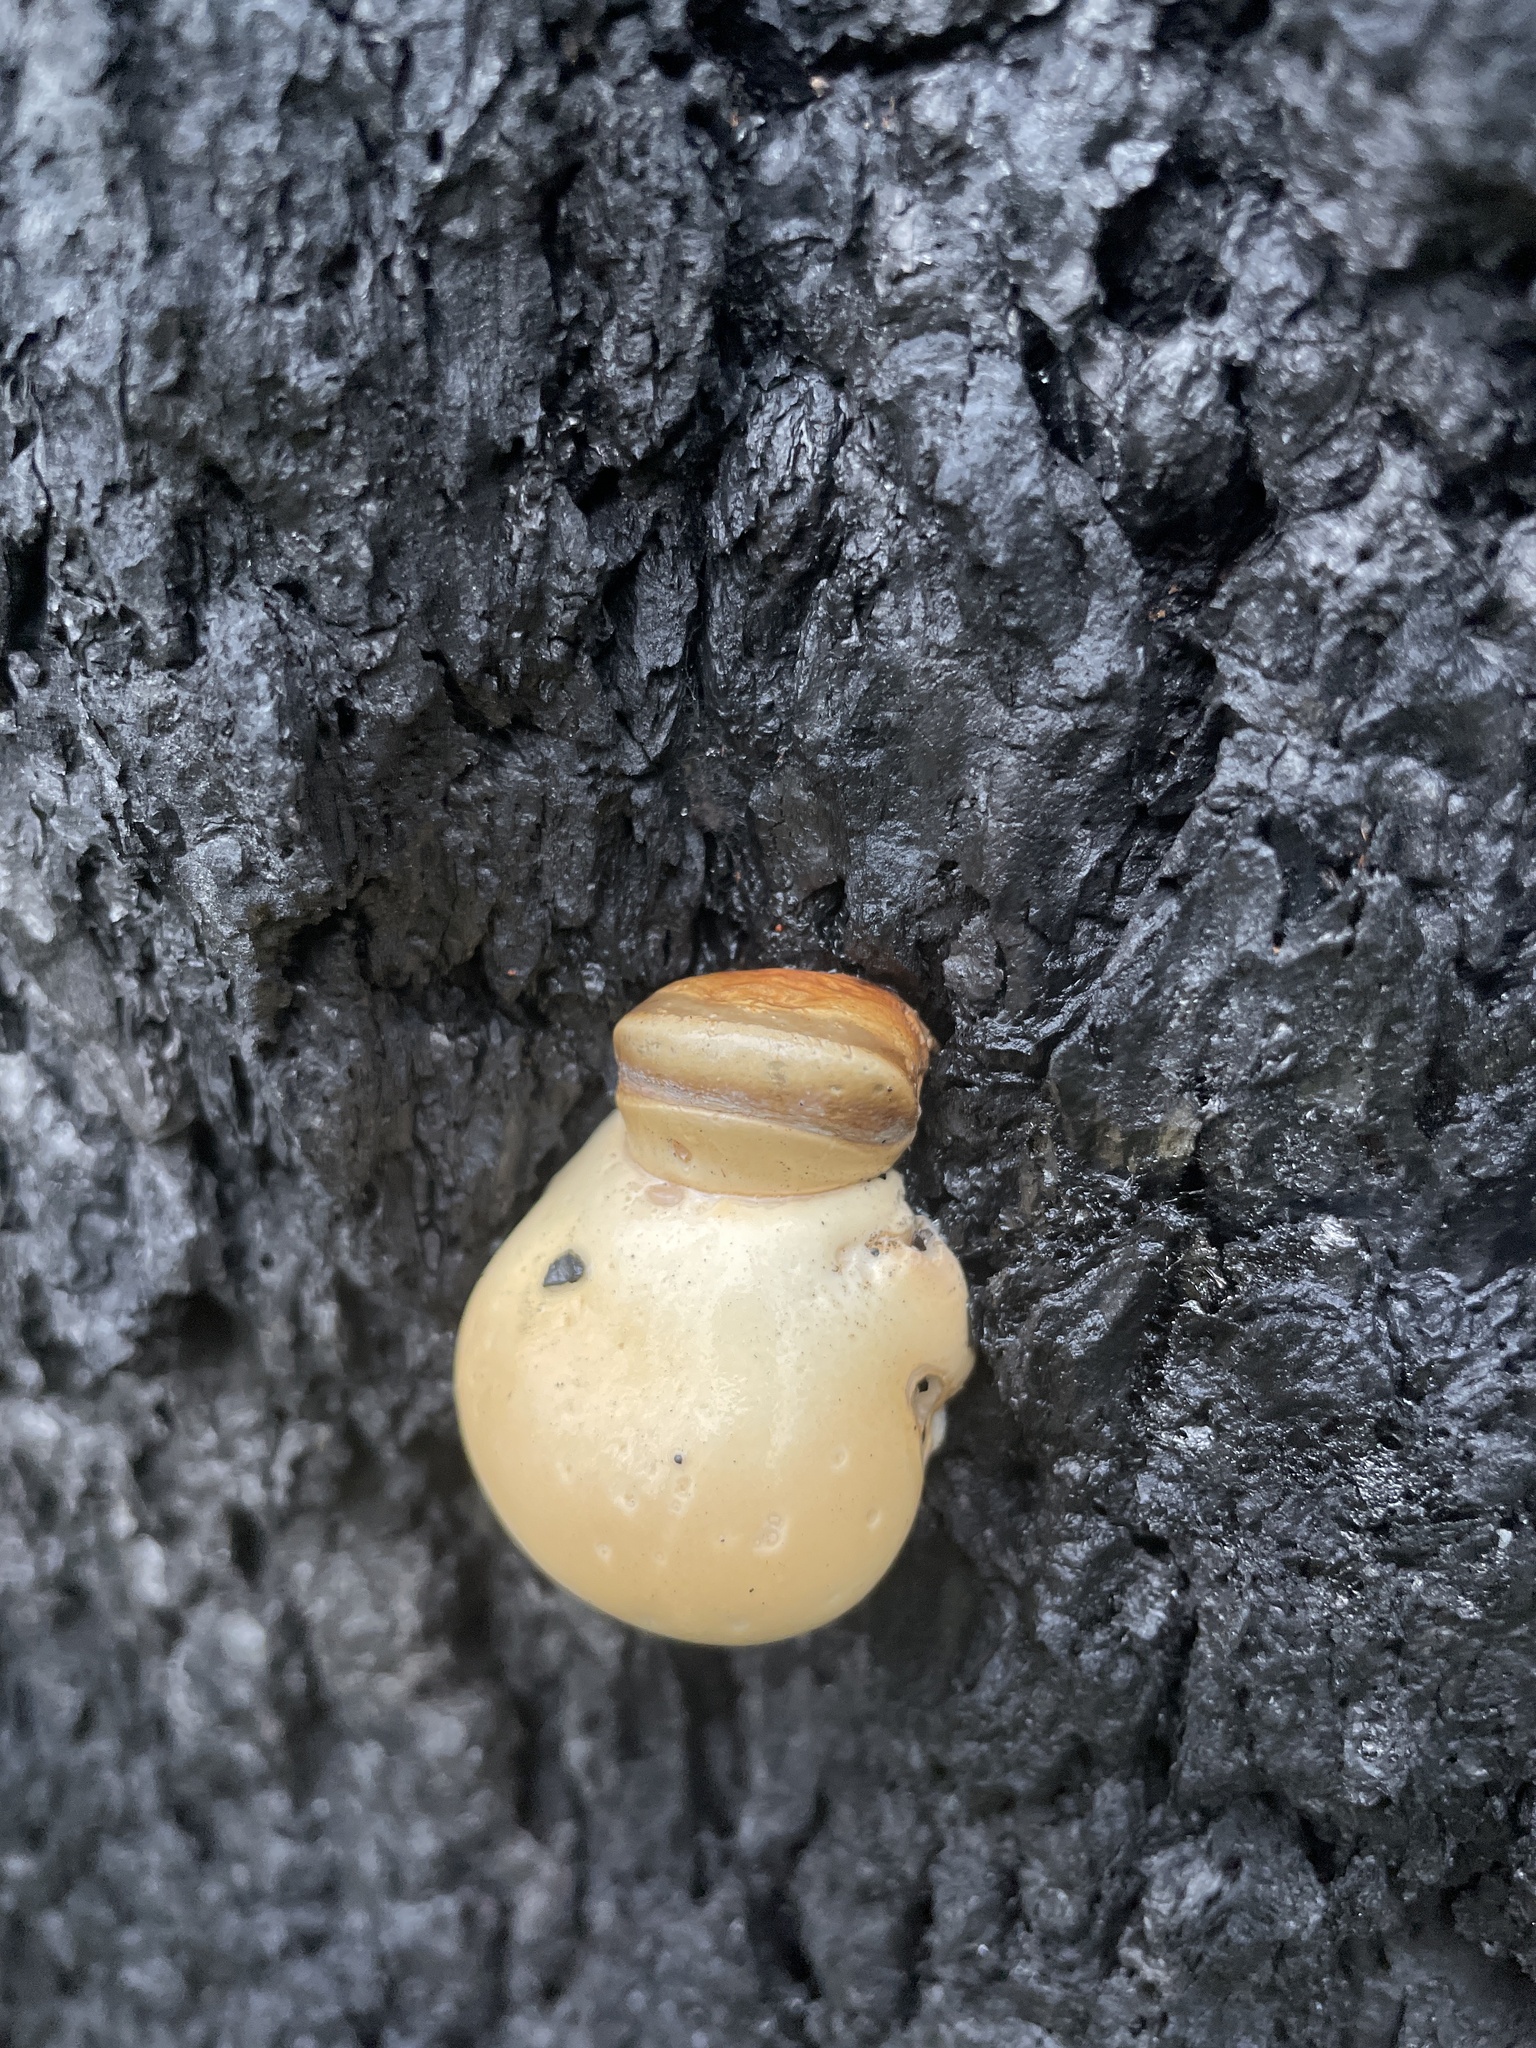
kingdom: Fungi
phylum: Basidiomycota
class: Agaricomycetes
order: Polyporales
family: Polyporaceae
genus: Cryptoporus
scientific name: Cryptoporus volvatus
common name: Veiled polypore
